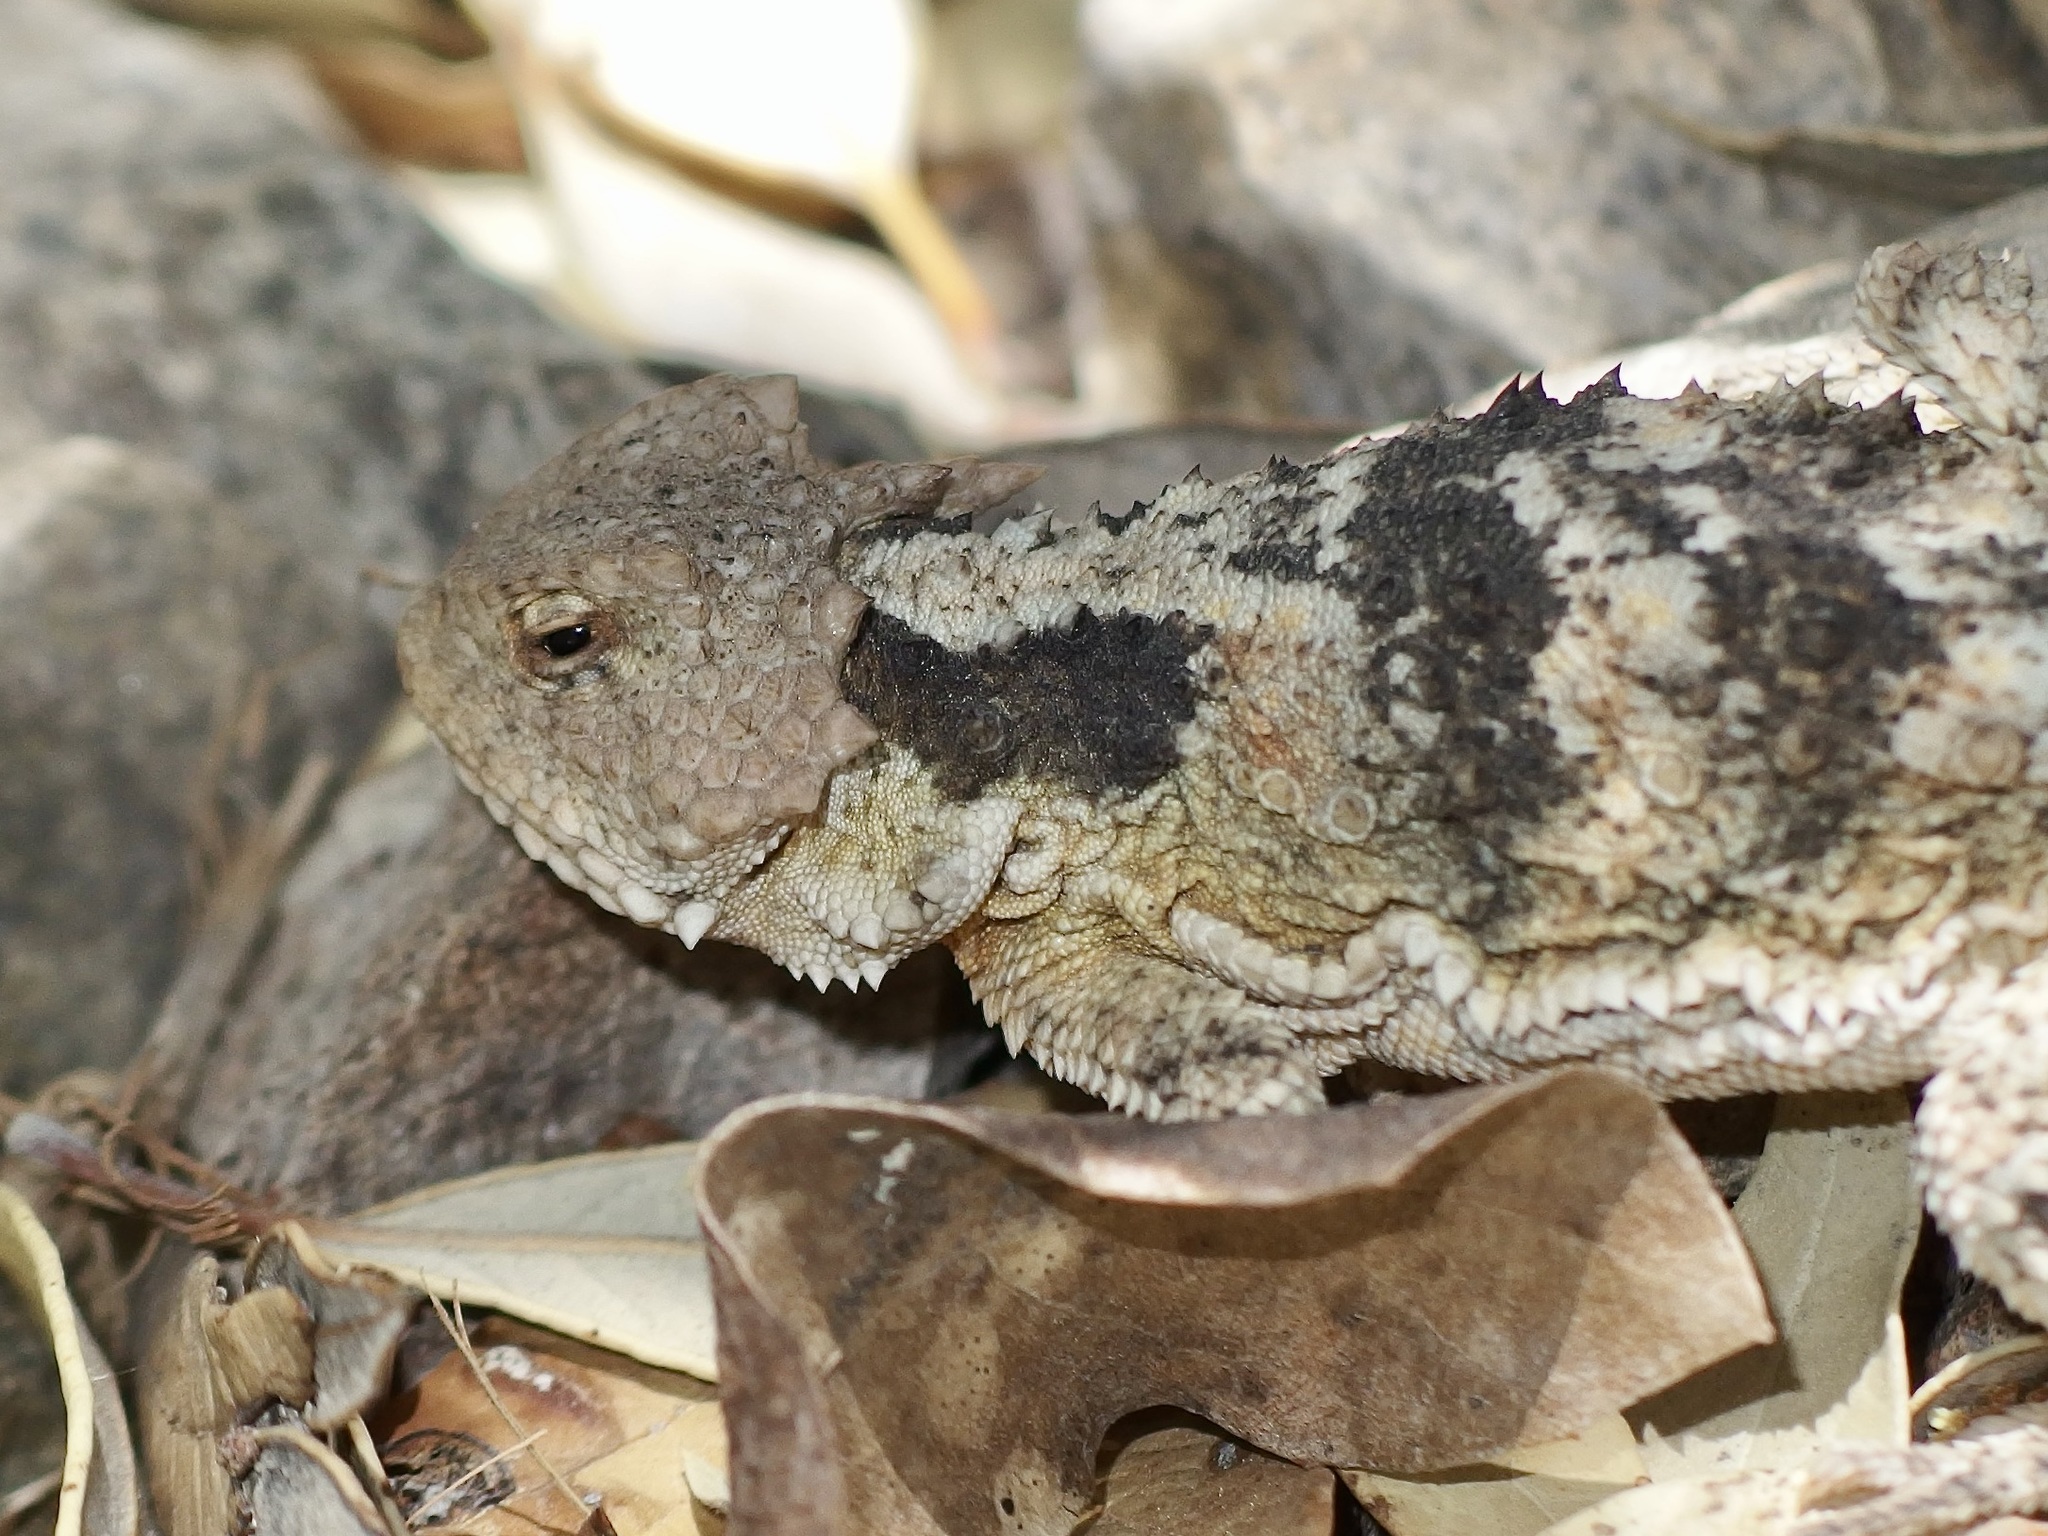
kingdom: Animalia
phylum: Chordata
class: Squamata
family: Phrynosomatidae
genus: Phrynosoma
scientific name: Phrynosoma hernandesi
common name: Greater short-horned lizard
